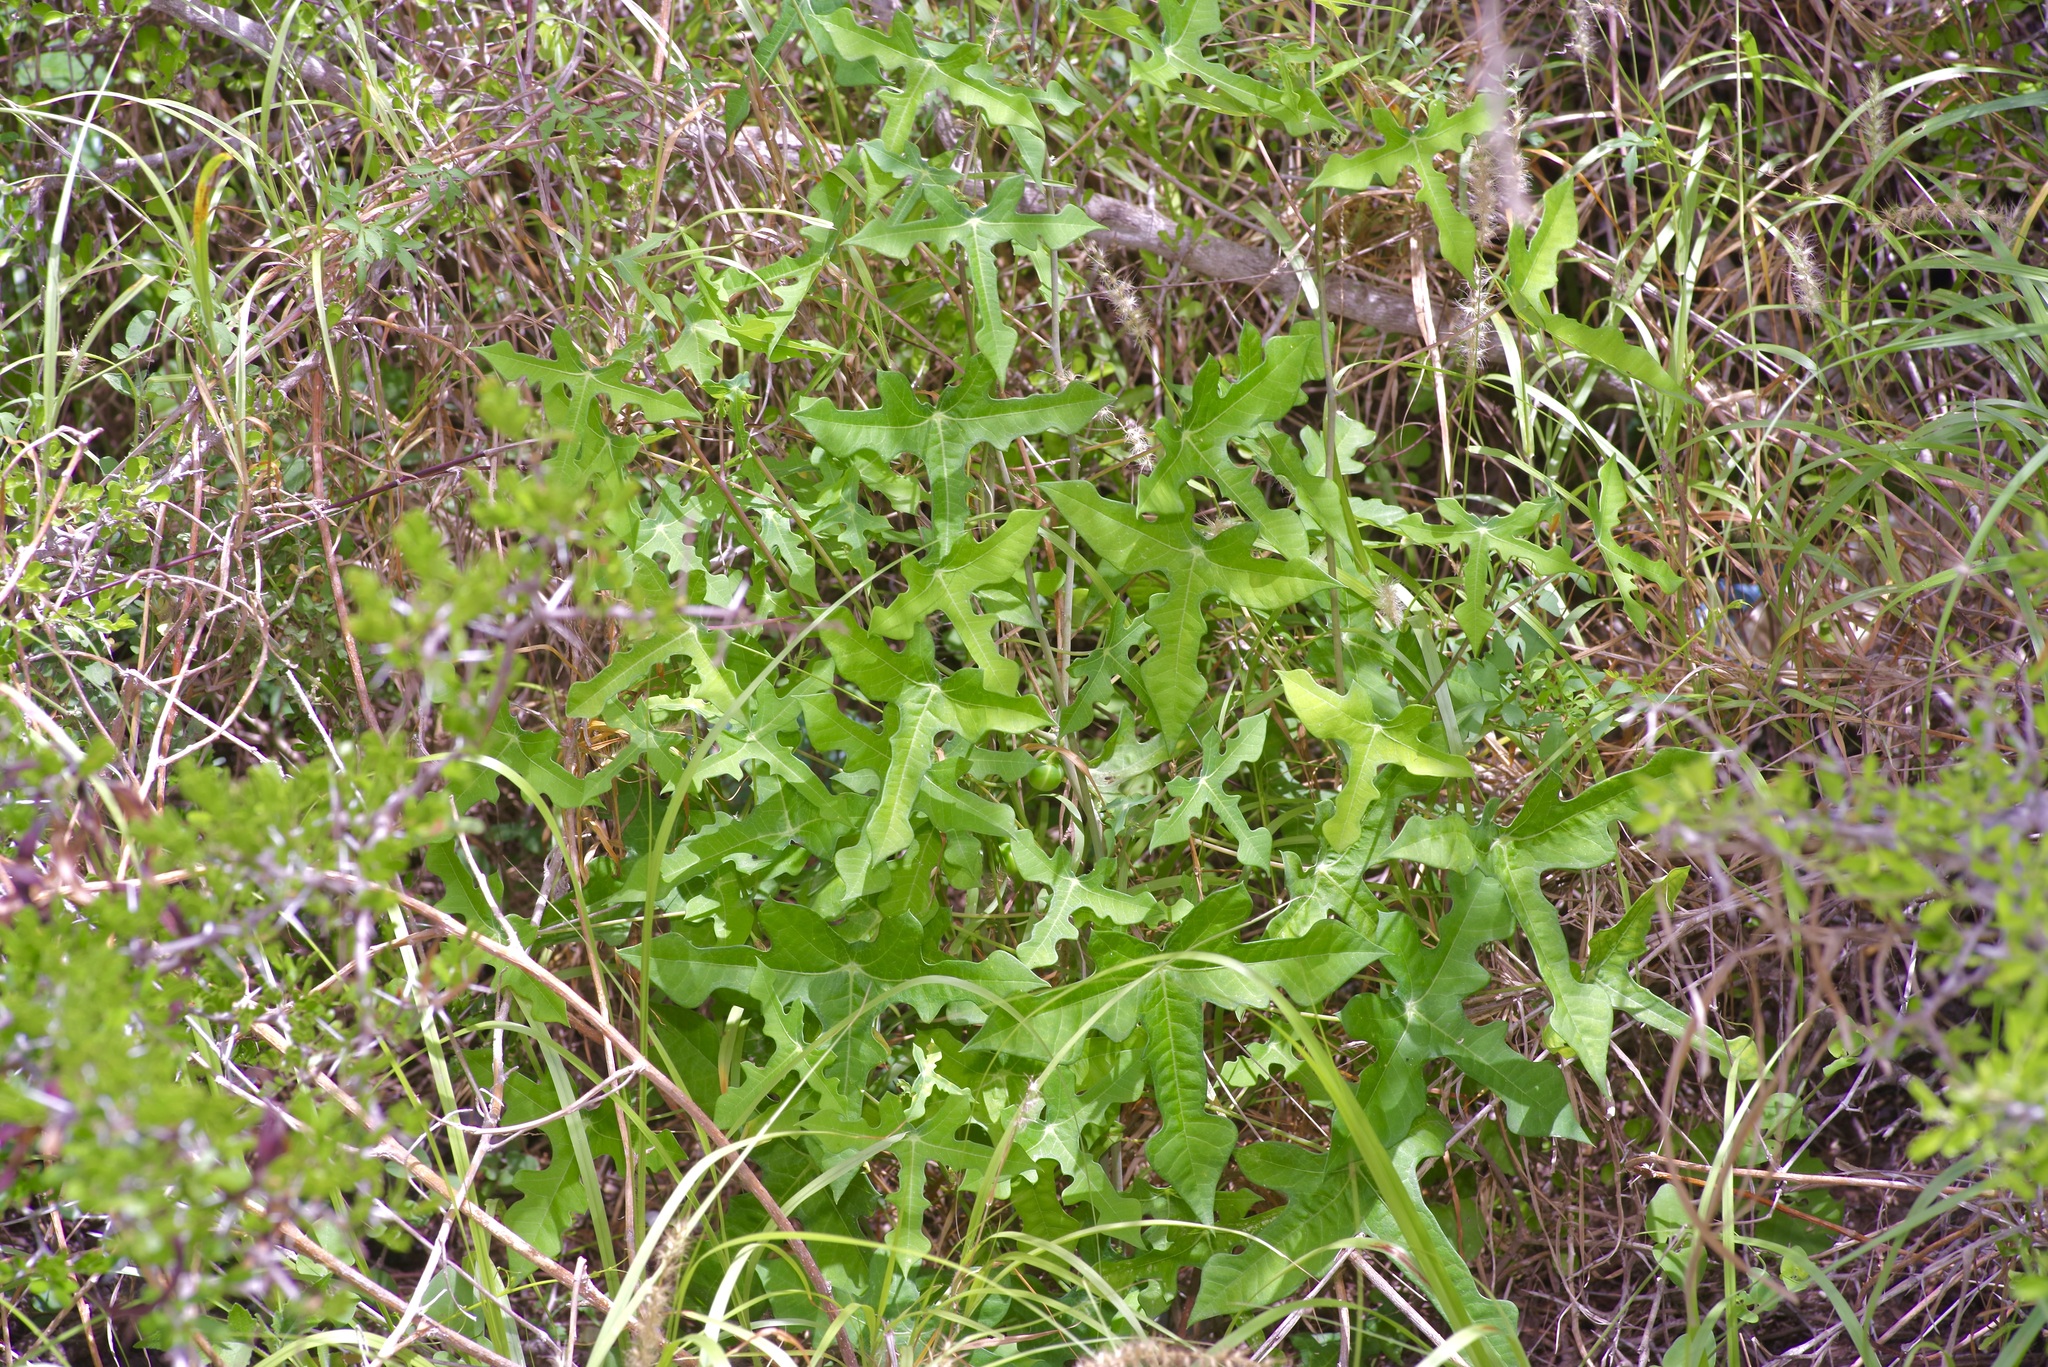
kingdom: Plantae
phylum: Tracheophyta
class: Magnoliopsida
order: Malpighiales
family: Euphorbiaceae
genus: Manihot
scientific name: Manihot walkerae
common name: Walker's manioc
